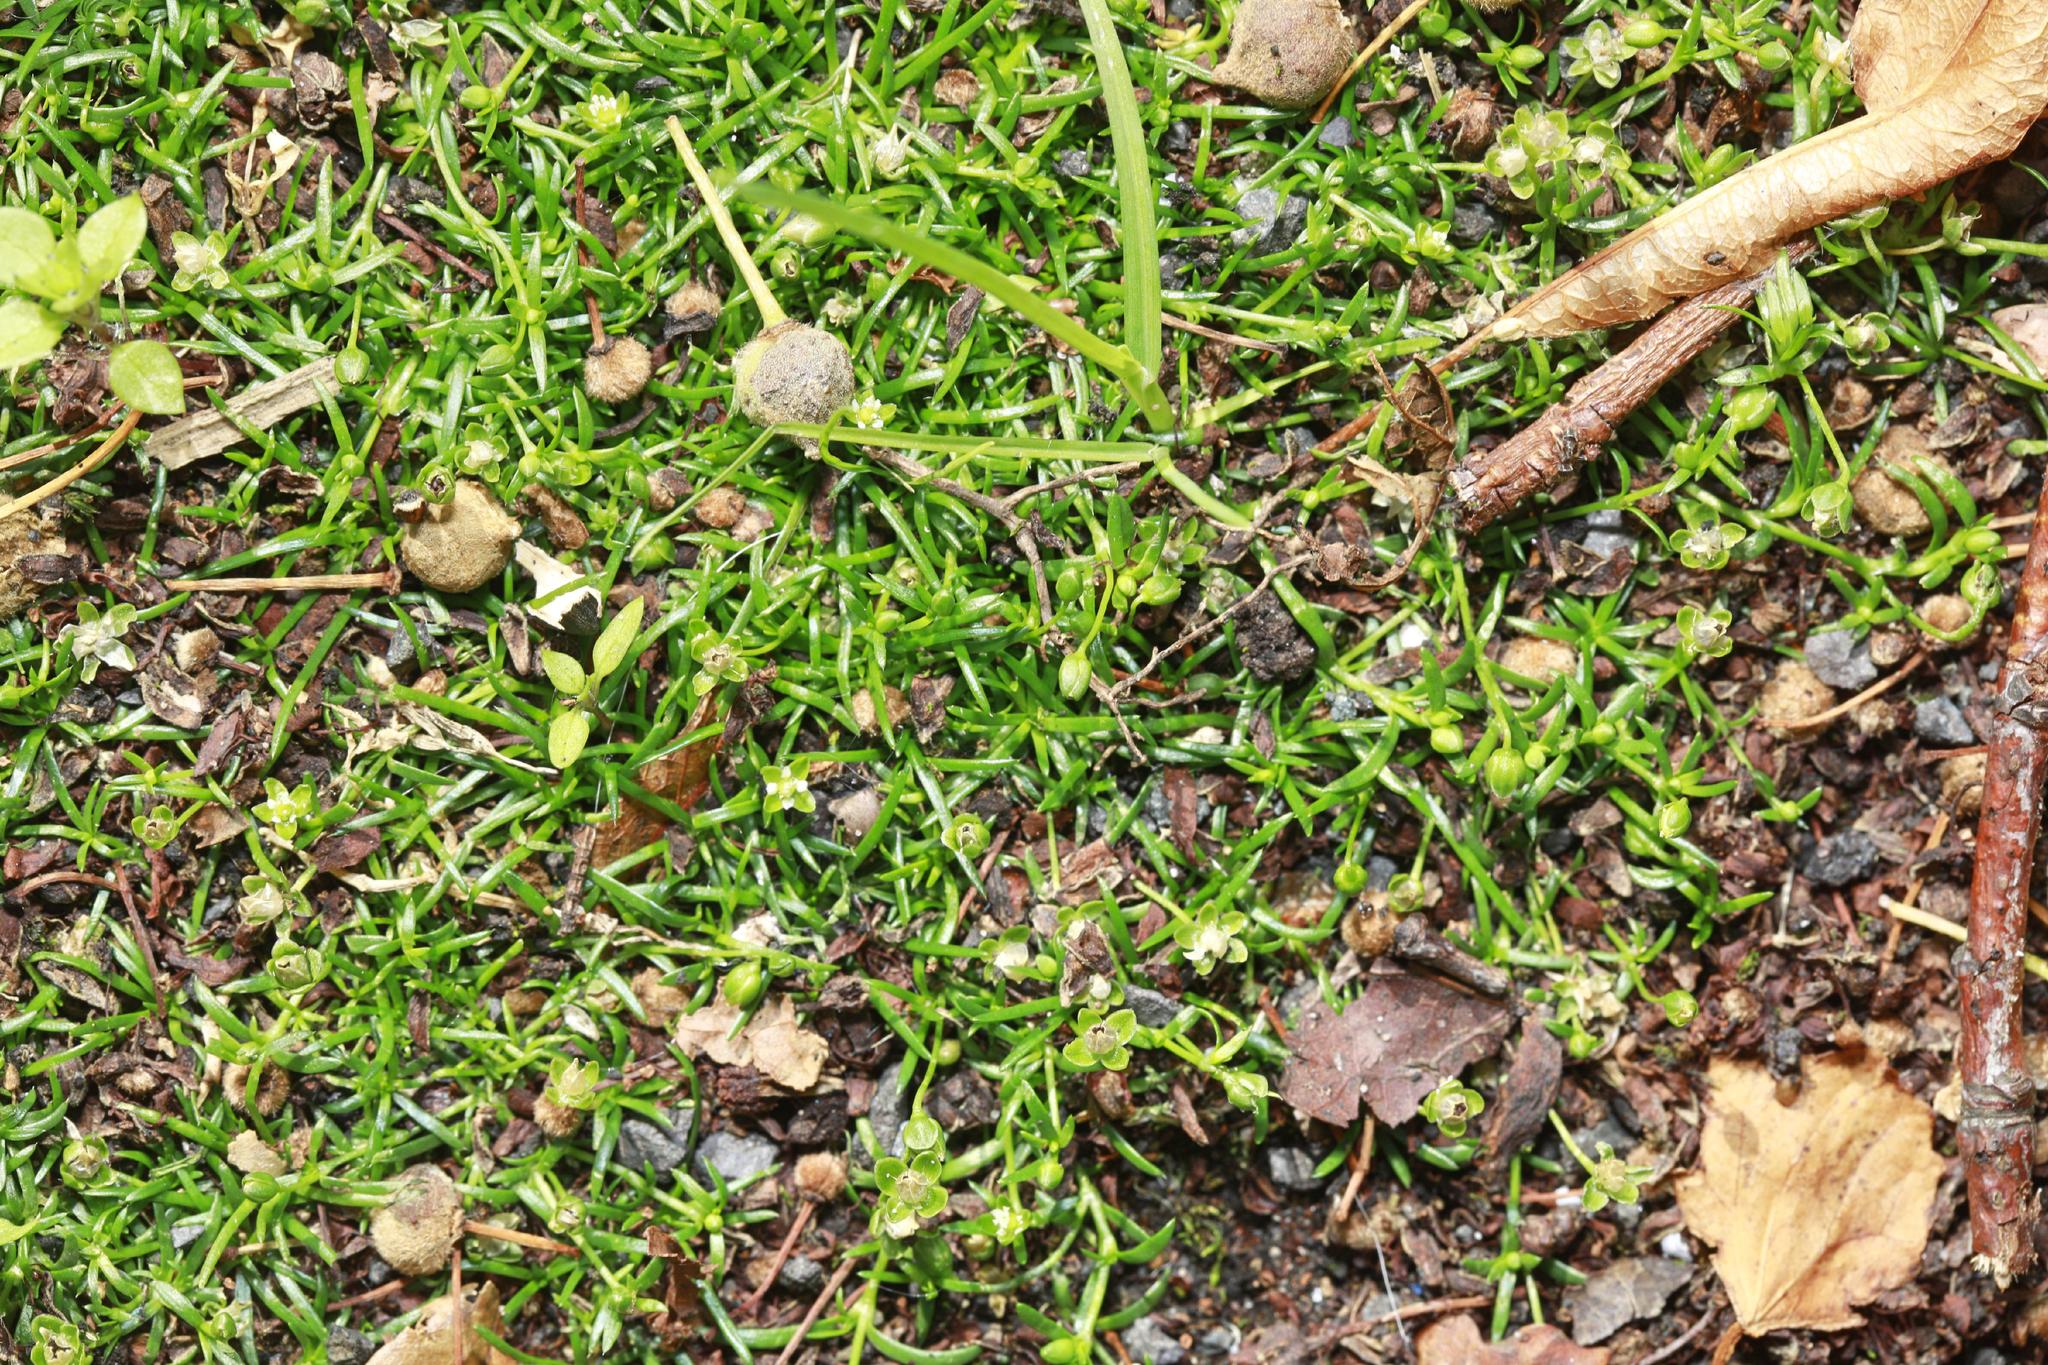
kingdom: Plantae
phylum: Tracheophyta
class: Magnoliopsida
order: Caryophyllales
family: Caryophyllaceae
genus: Sagina
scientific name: Sagina procumbens
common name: Procumbent pearlwort
